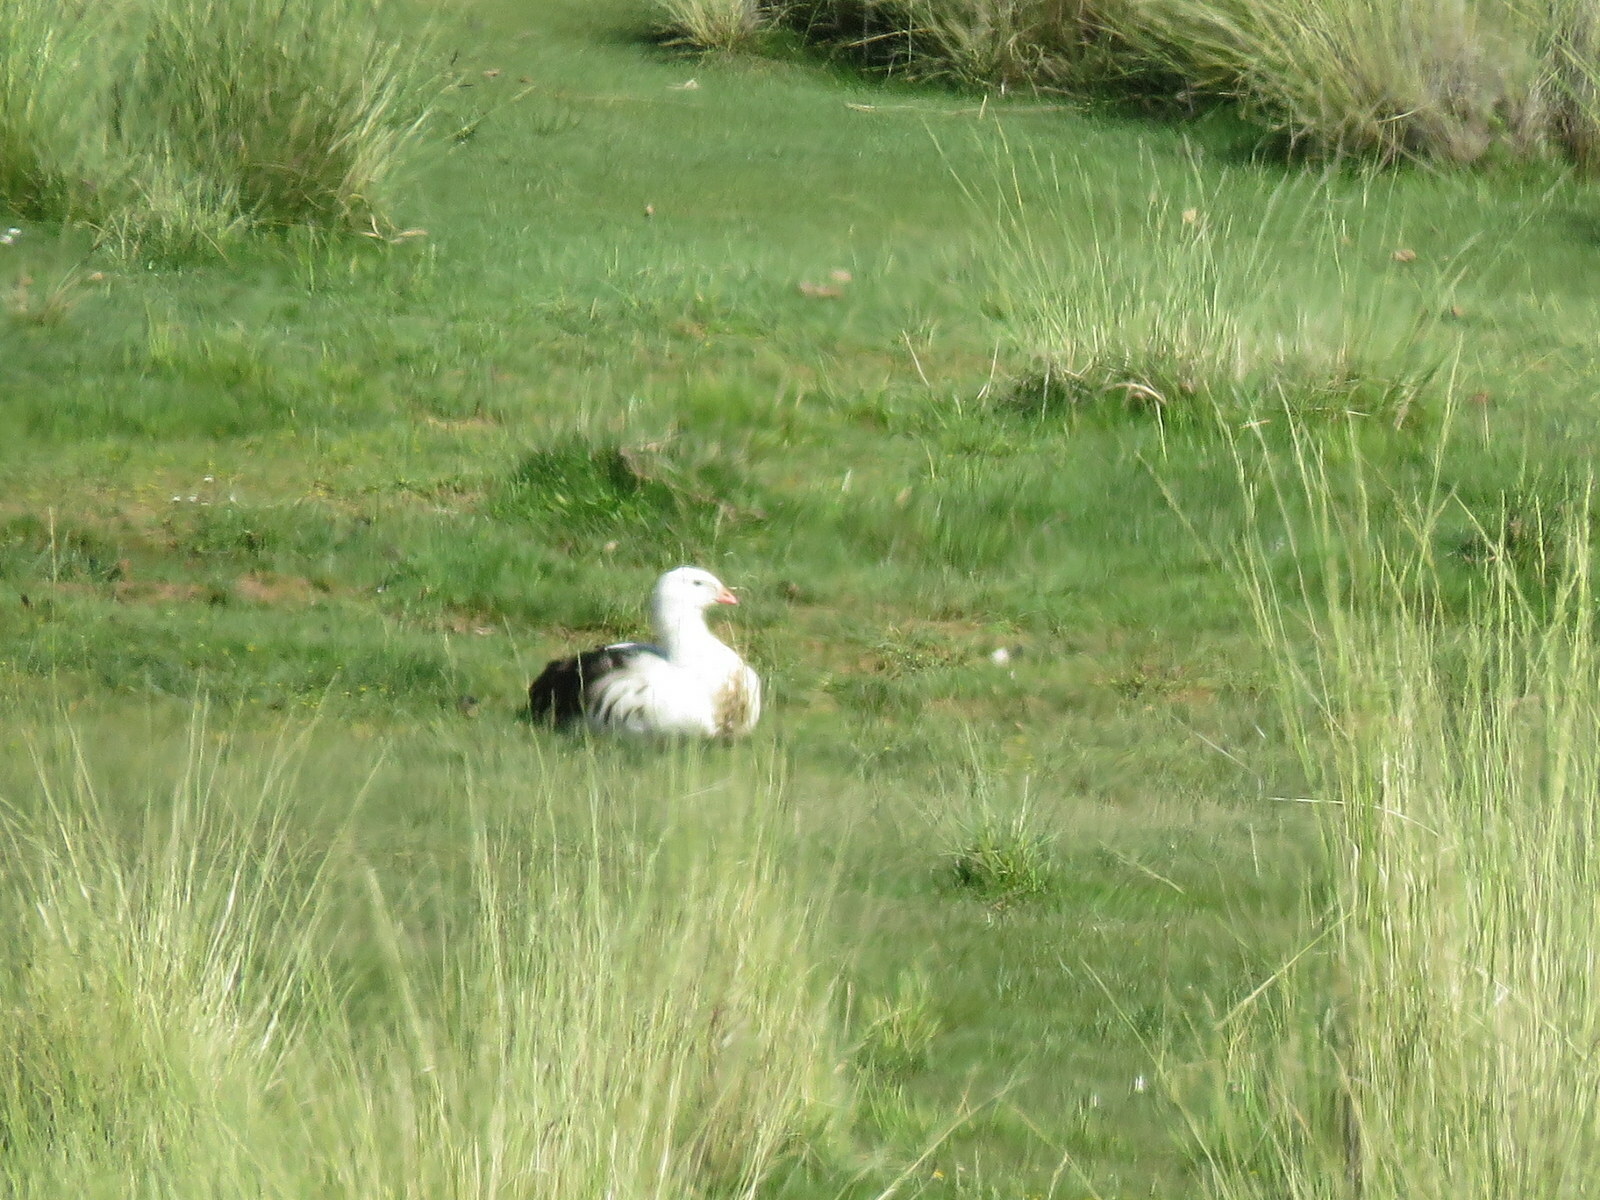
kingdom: Animalia
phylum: Chordata
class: Aves
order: Anseriformes
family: Anatidae
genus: Chloephaga
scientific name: Chloephaga melanoptera
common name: Andean goose
